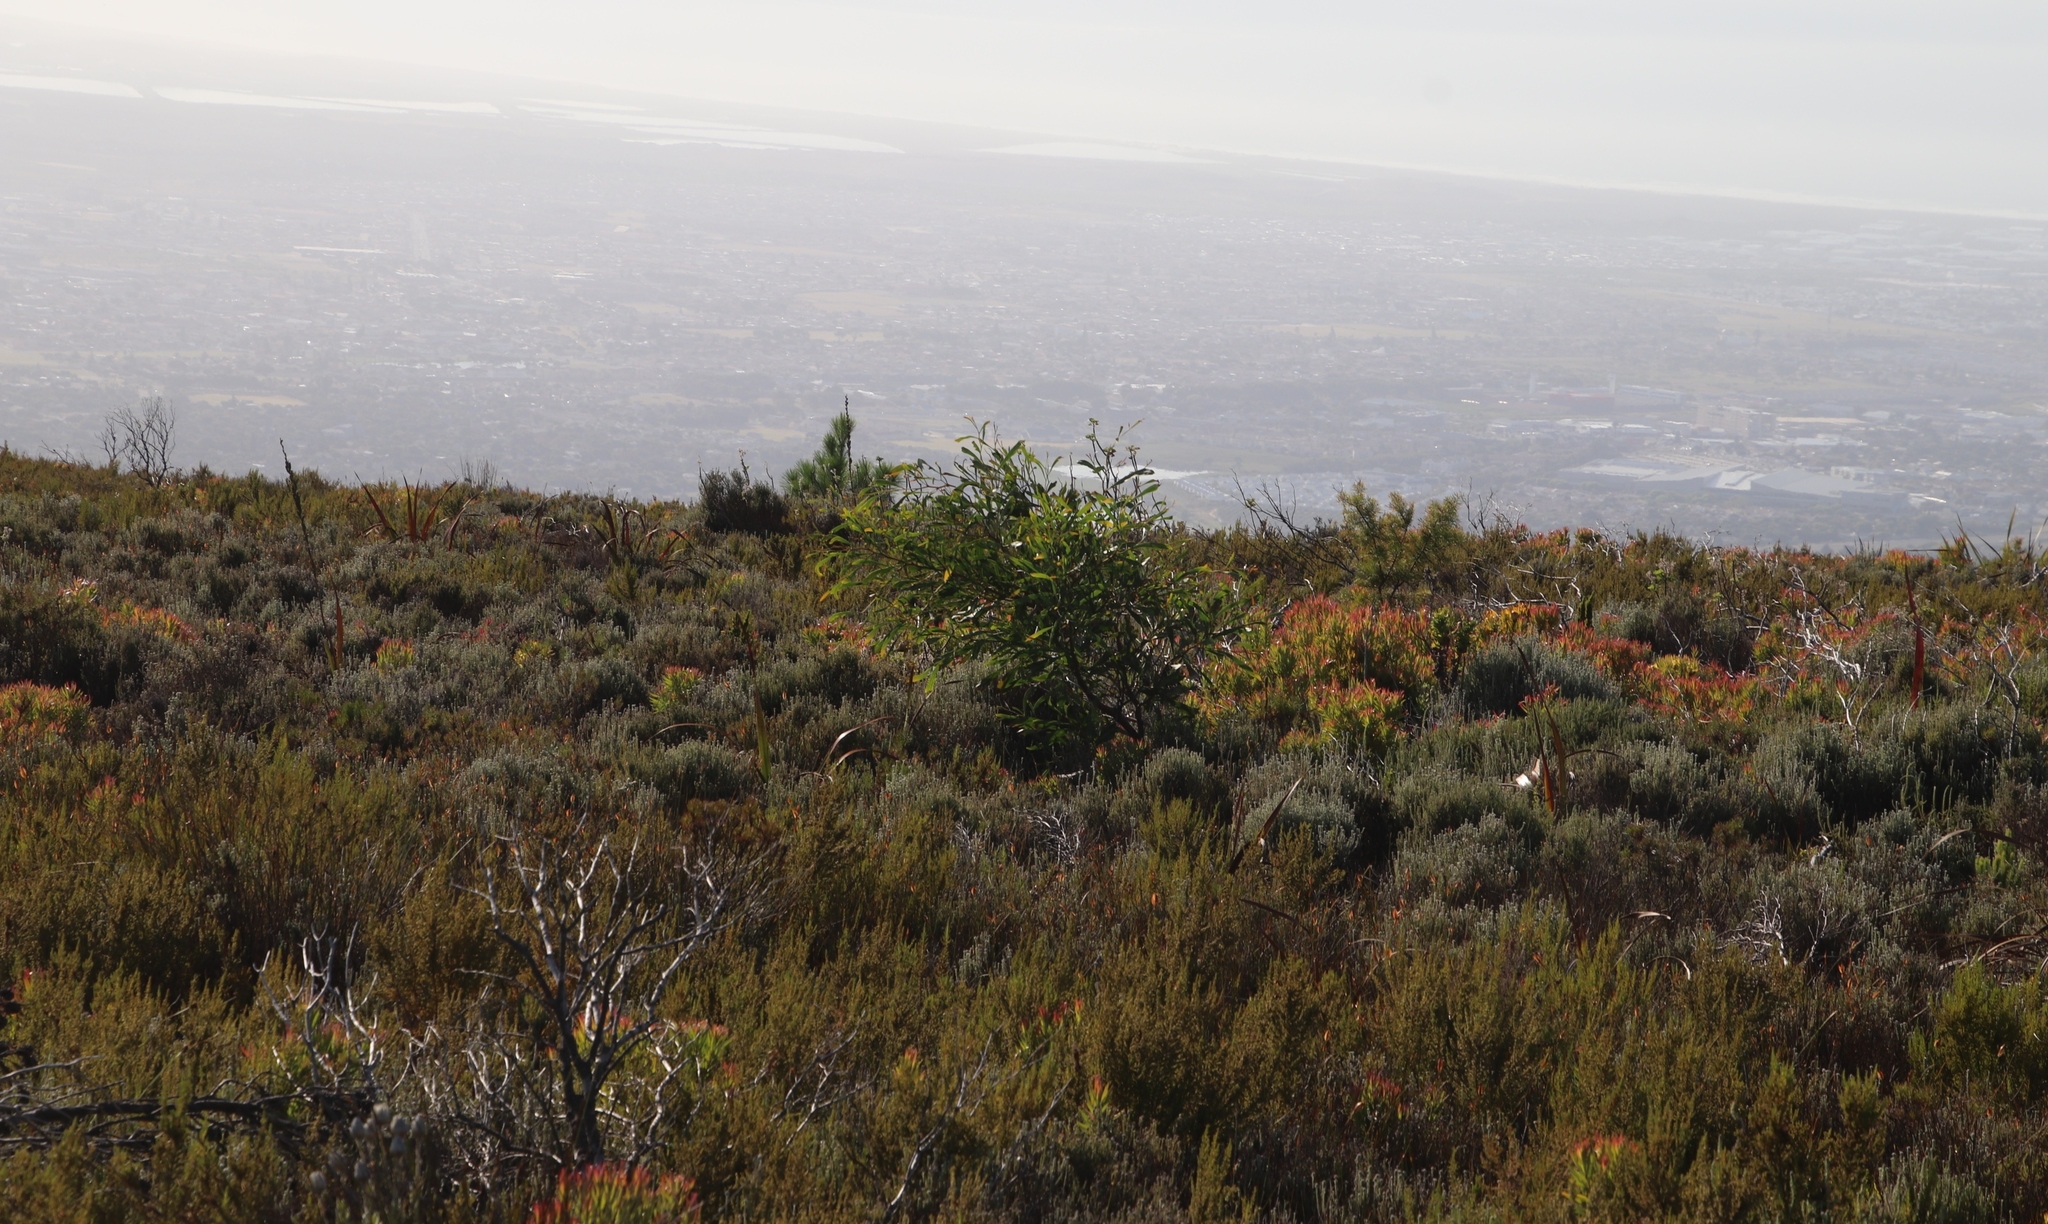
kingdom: Plantae
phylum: Tracheophyta
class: Magnoliopsida
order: Fabales
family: Fabaceae
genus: Acacia
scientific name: Acacia saligna
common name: Orange wattle
